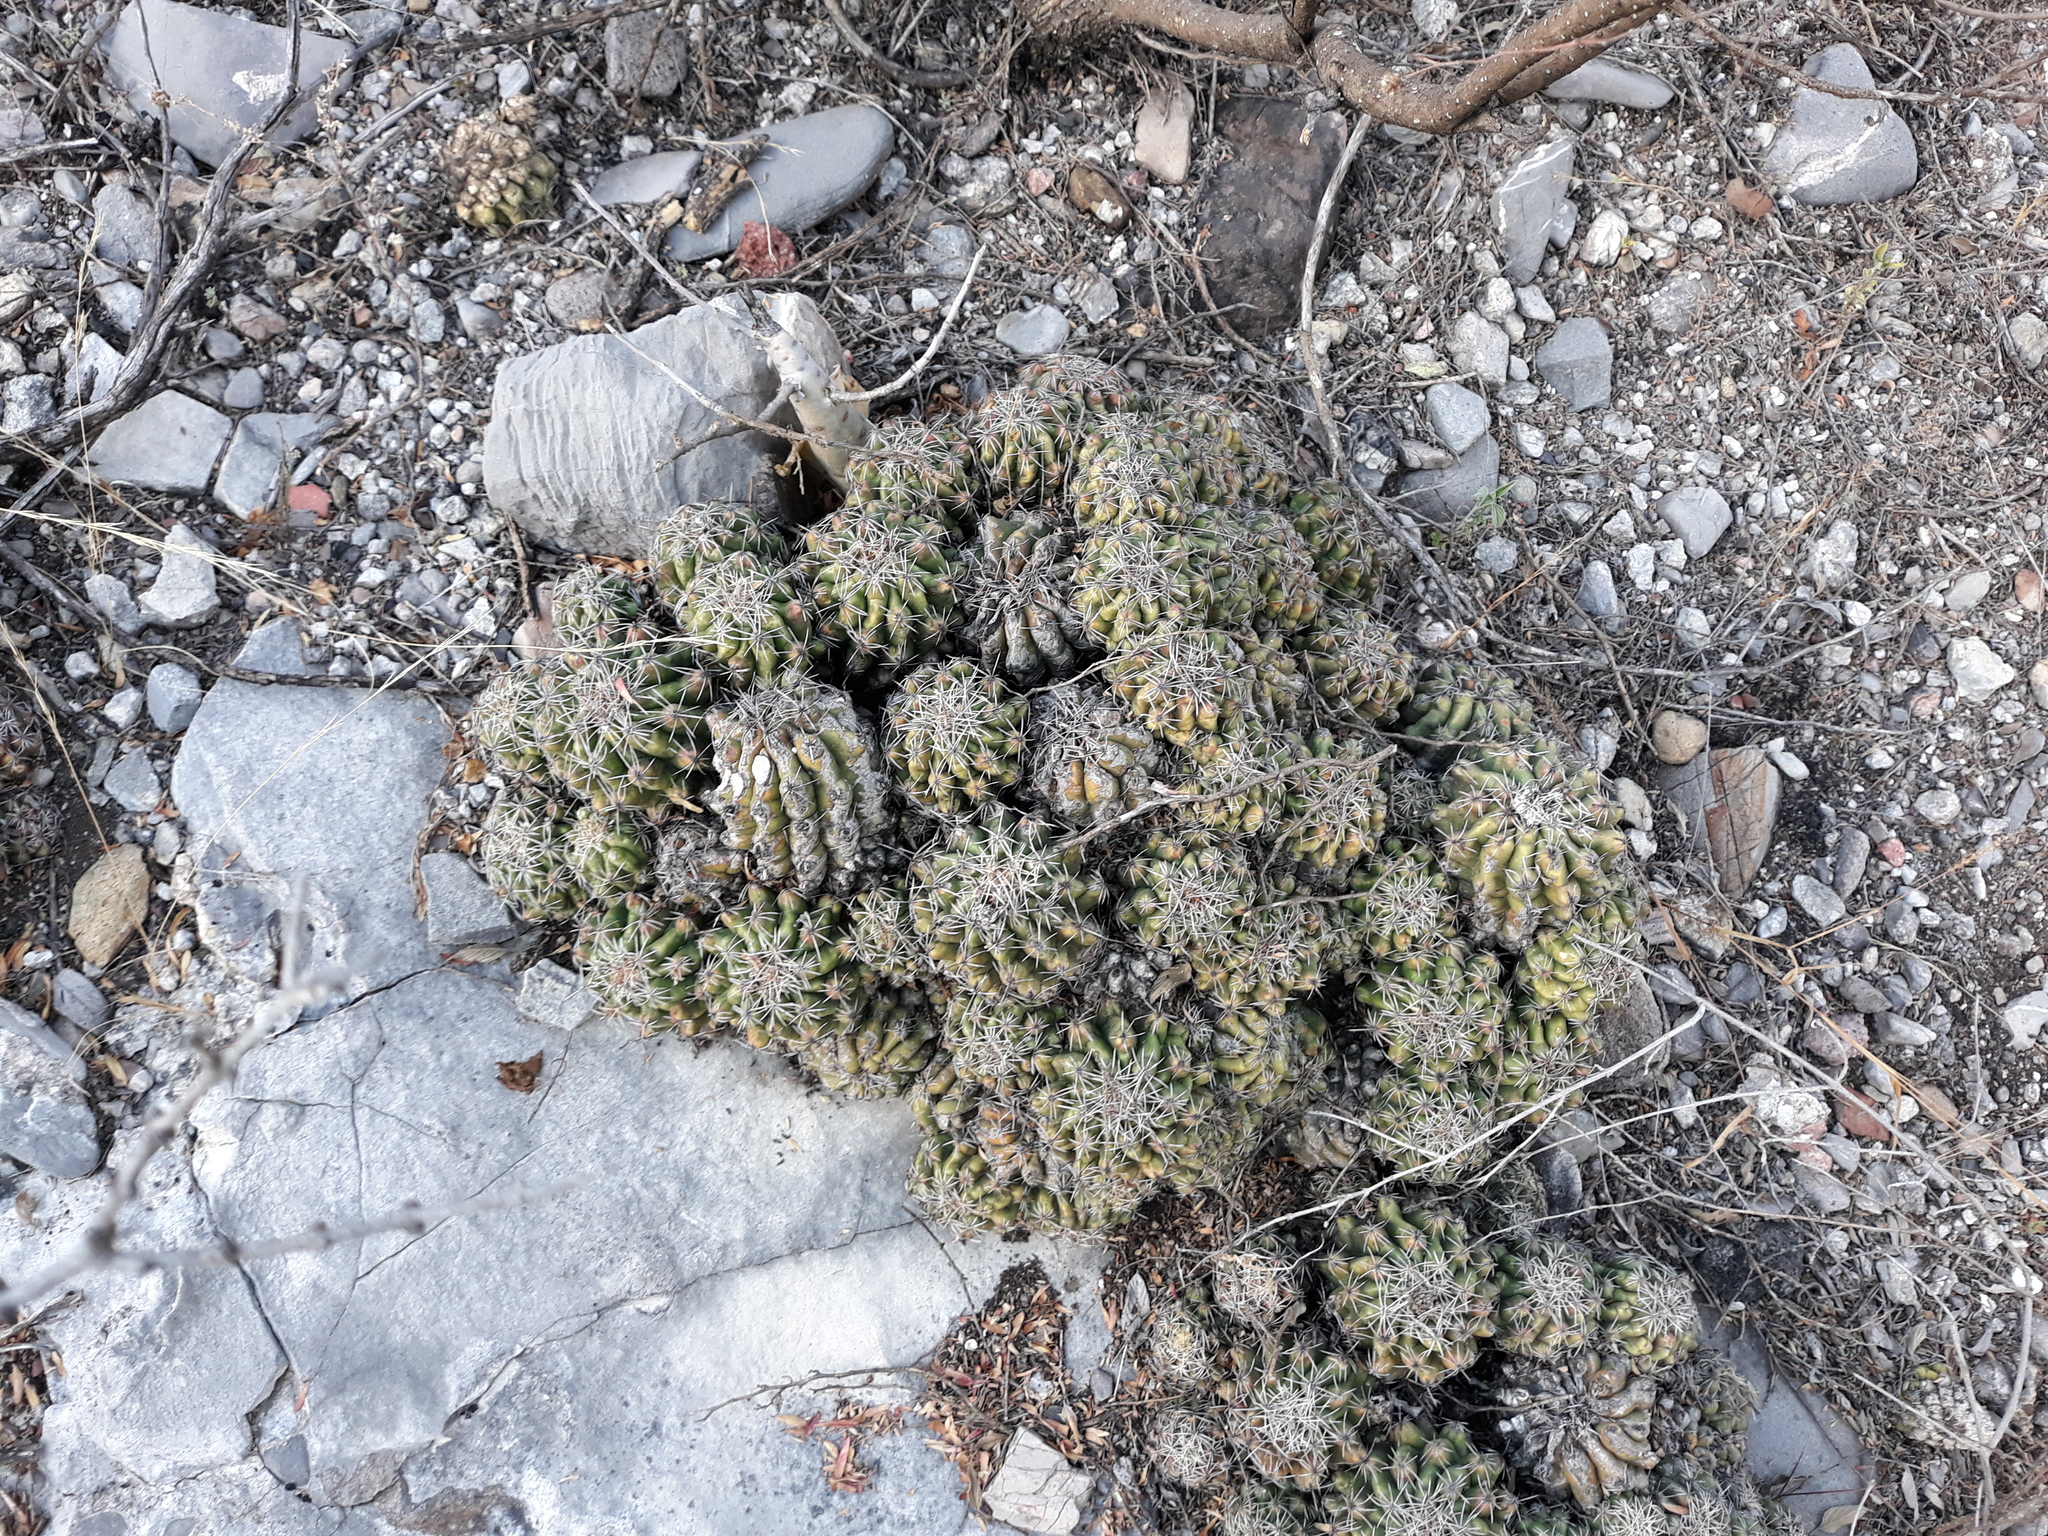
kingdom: Plantae
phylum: Tracheophyta
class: Magnoliopsida
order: Caryophyllales
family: Cactaceae
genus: Thelocactus
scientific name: Thelocactus leucacanthus
